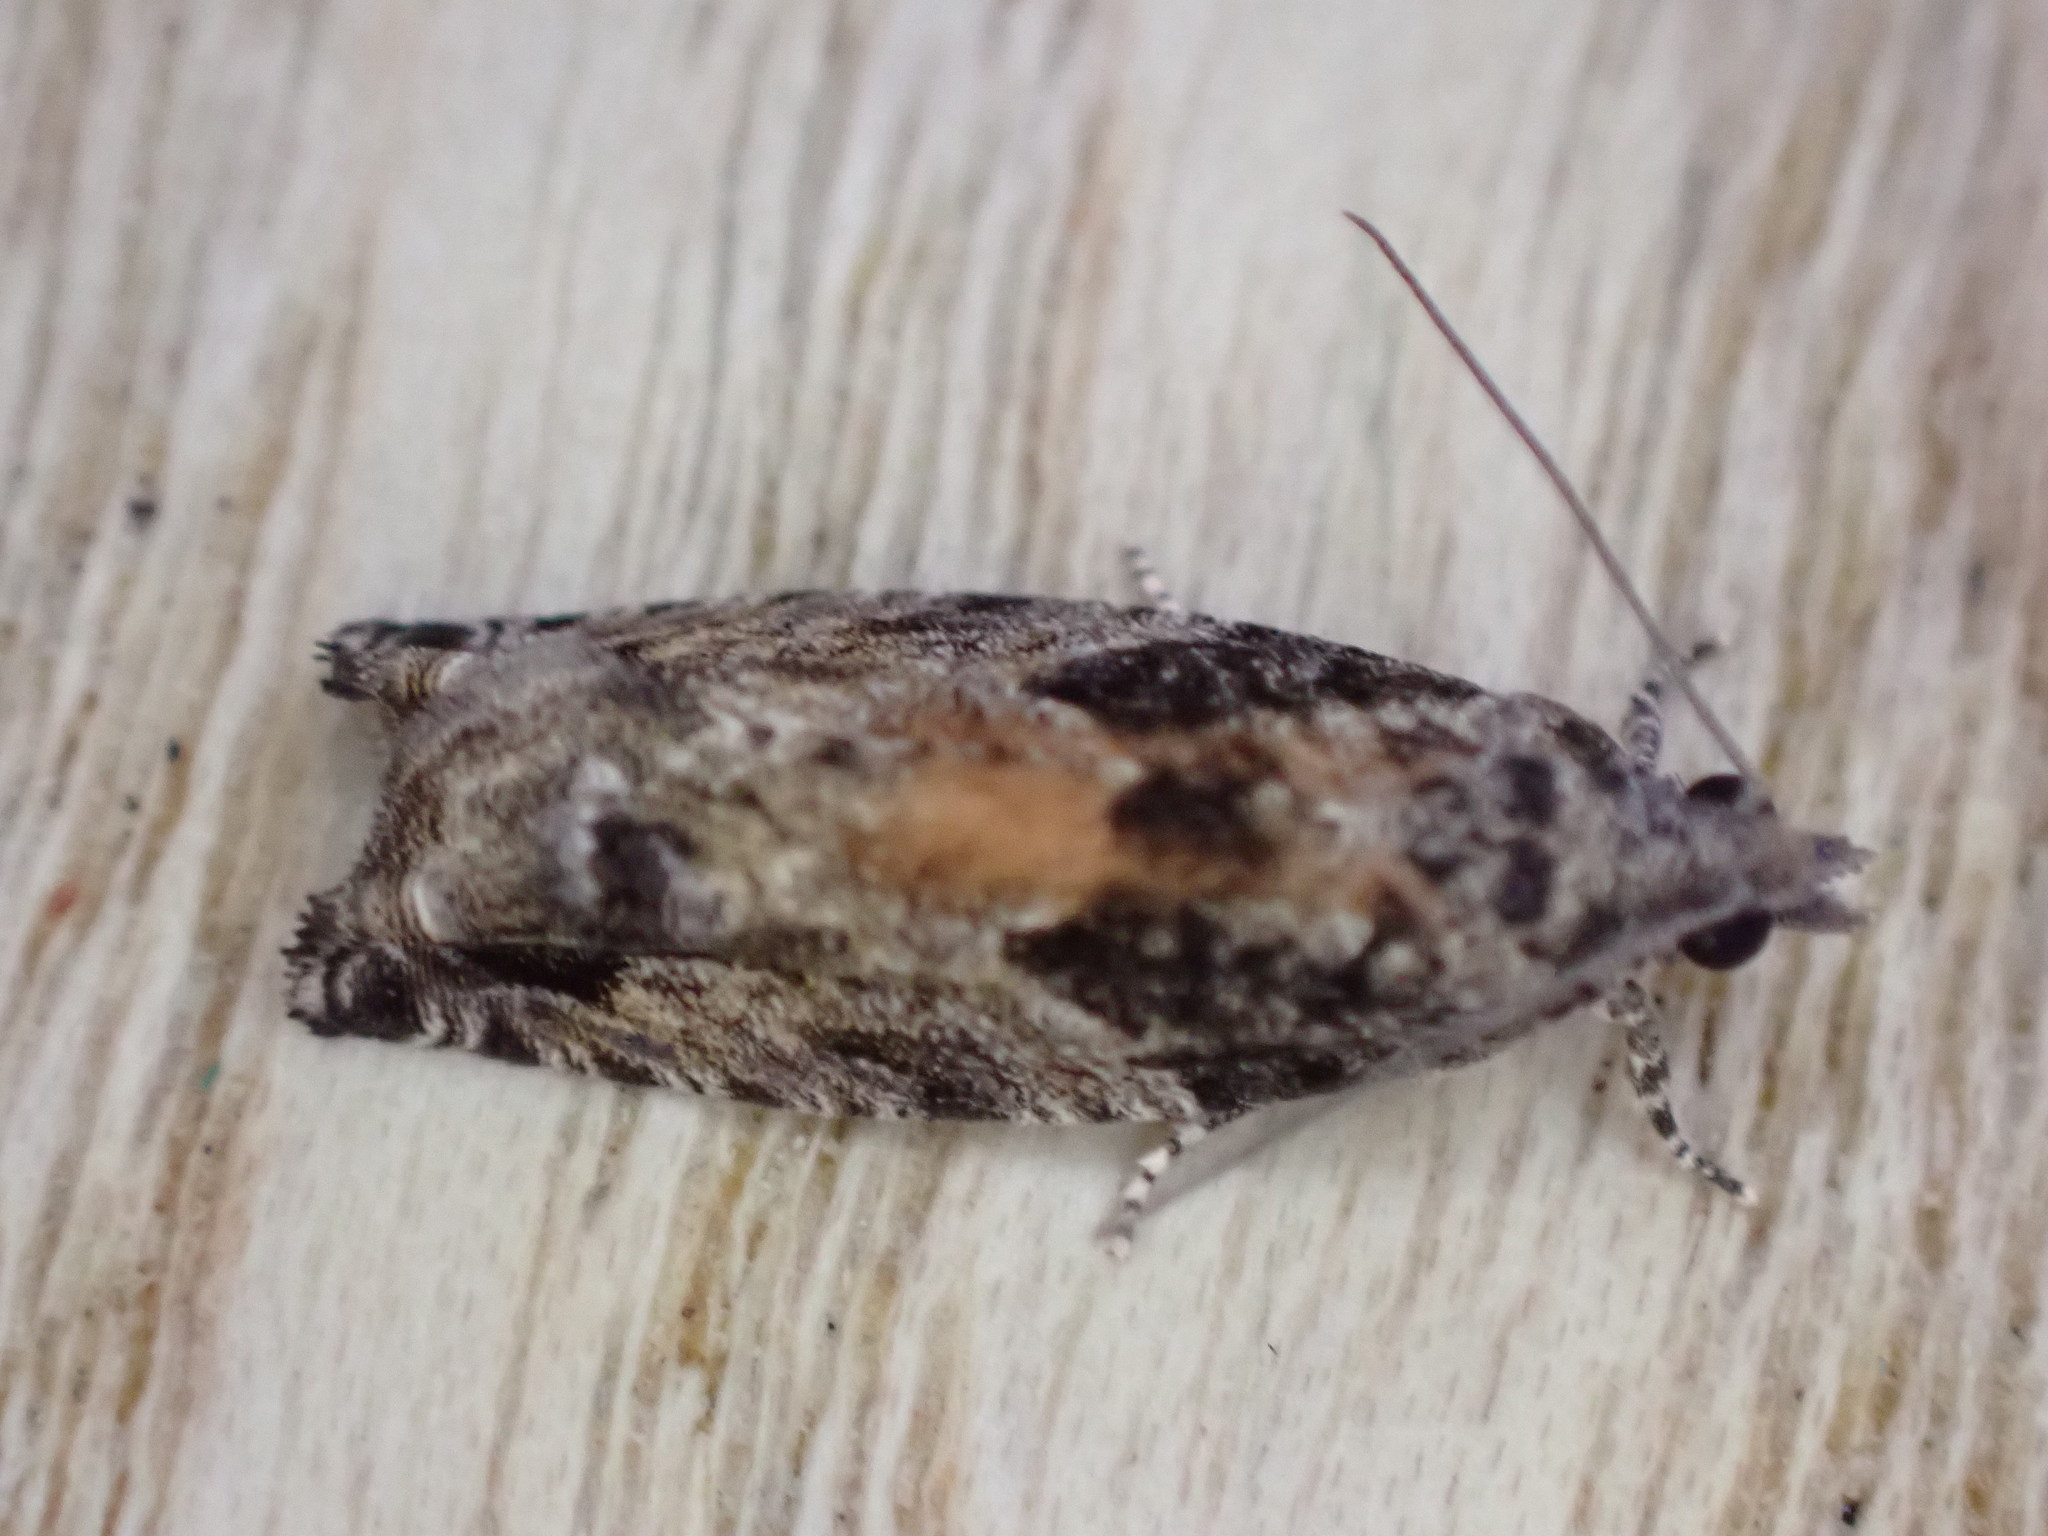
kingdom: Animalia
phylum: Arthropoda
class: Insecta
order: Lepidoptera
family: Tortricidae
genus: Epinotia
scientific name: Epinotia nisella
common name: Grey poplar bell
